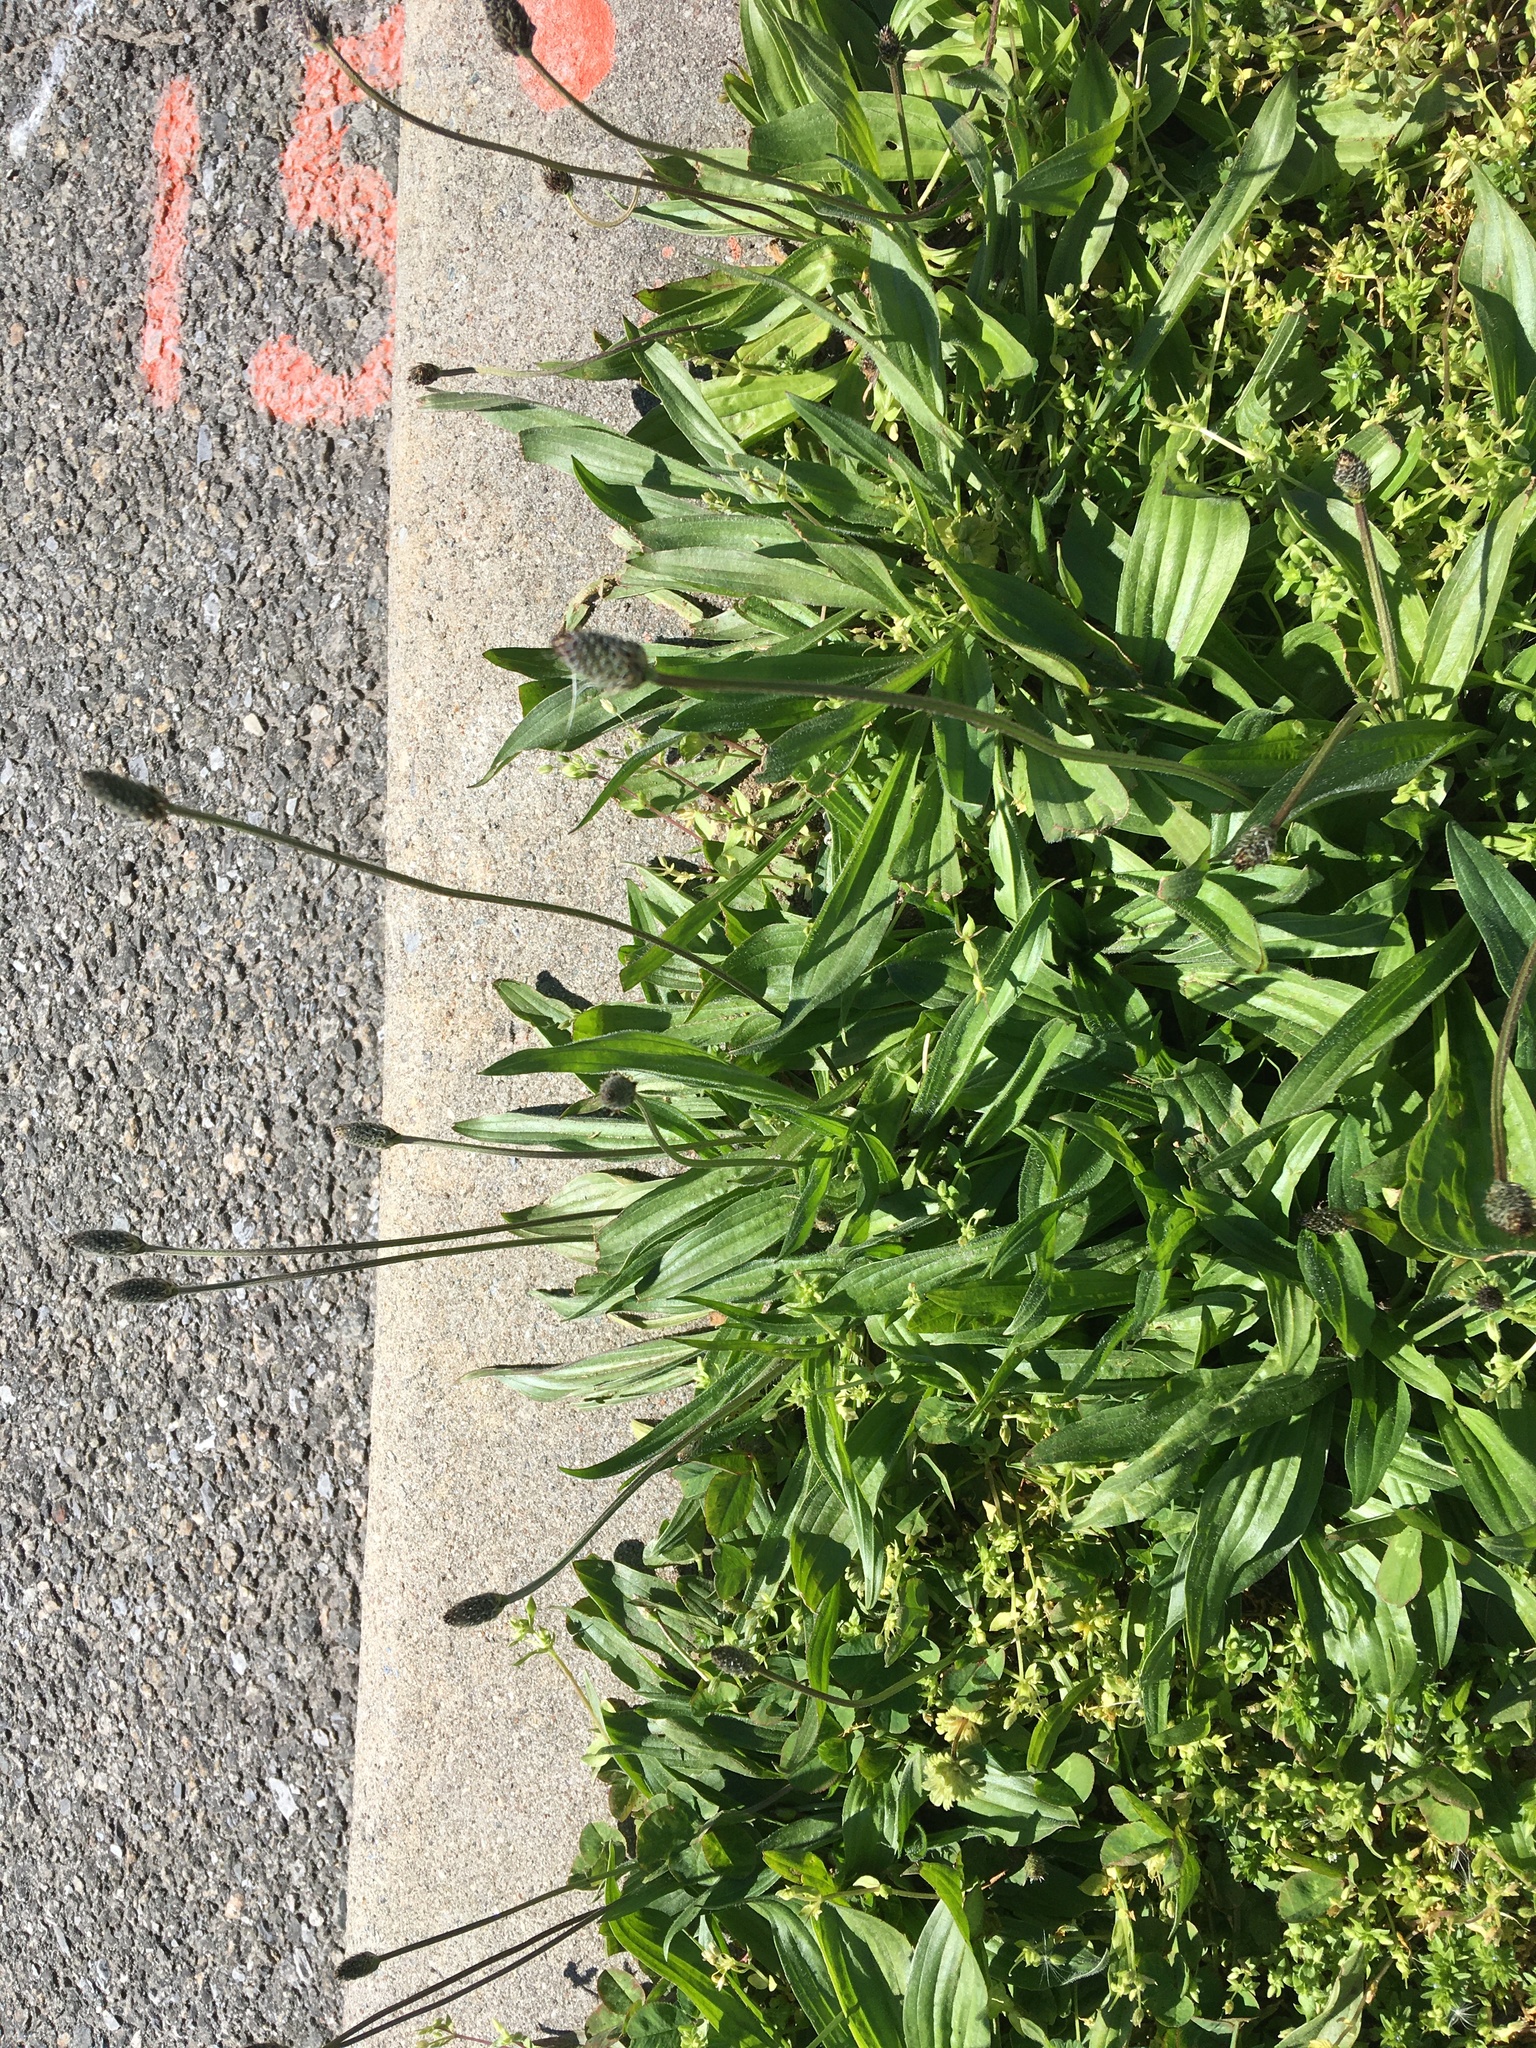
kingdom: Plantae
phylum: Tracheophyta
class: Magnoliopsida
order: Lamiales
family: Plantaginaceae
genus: Plantago
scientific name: Plantago lanceolata
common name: Ribwort plantain
